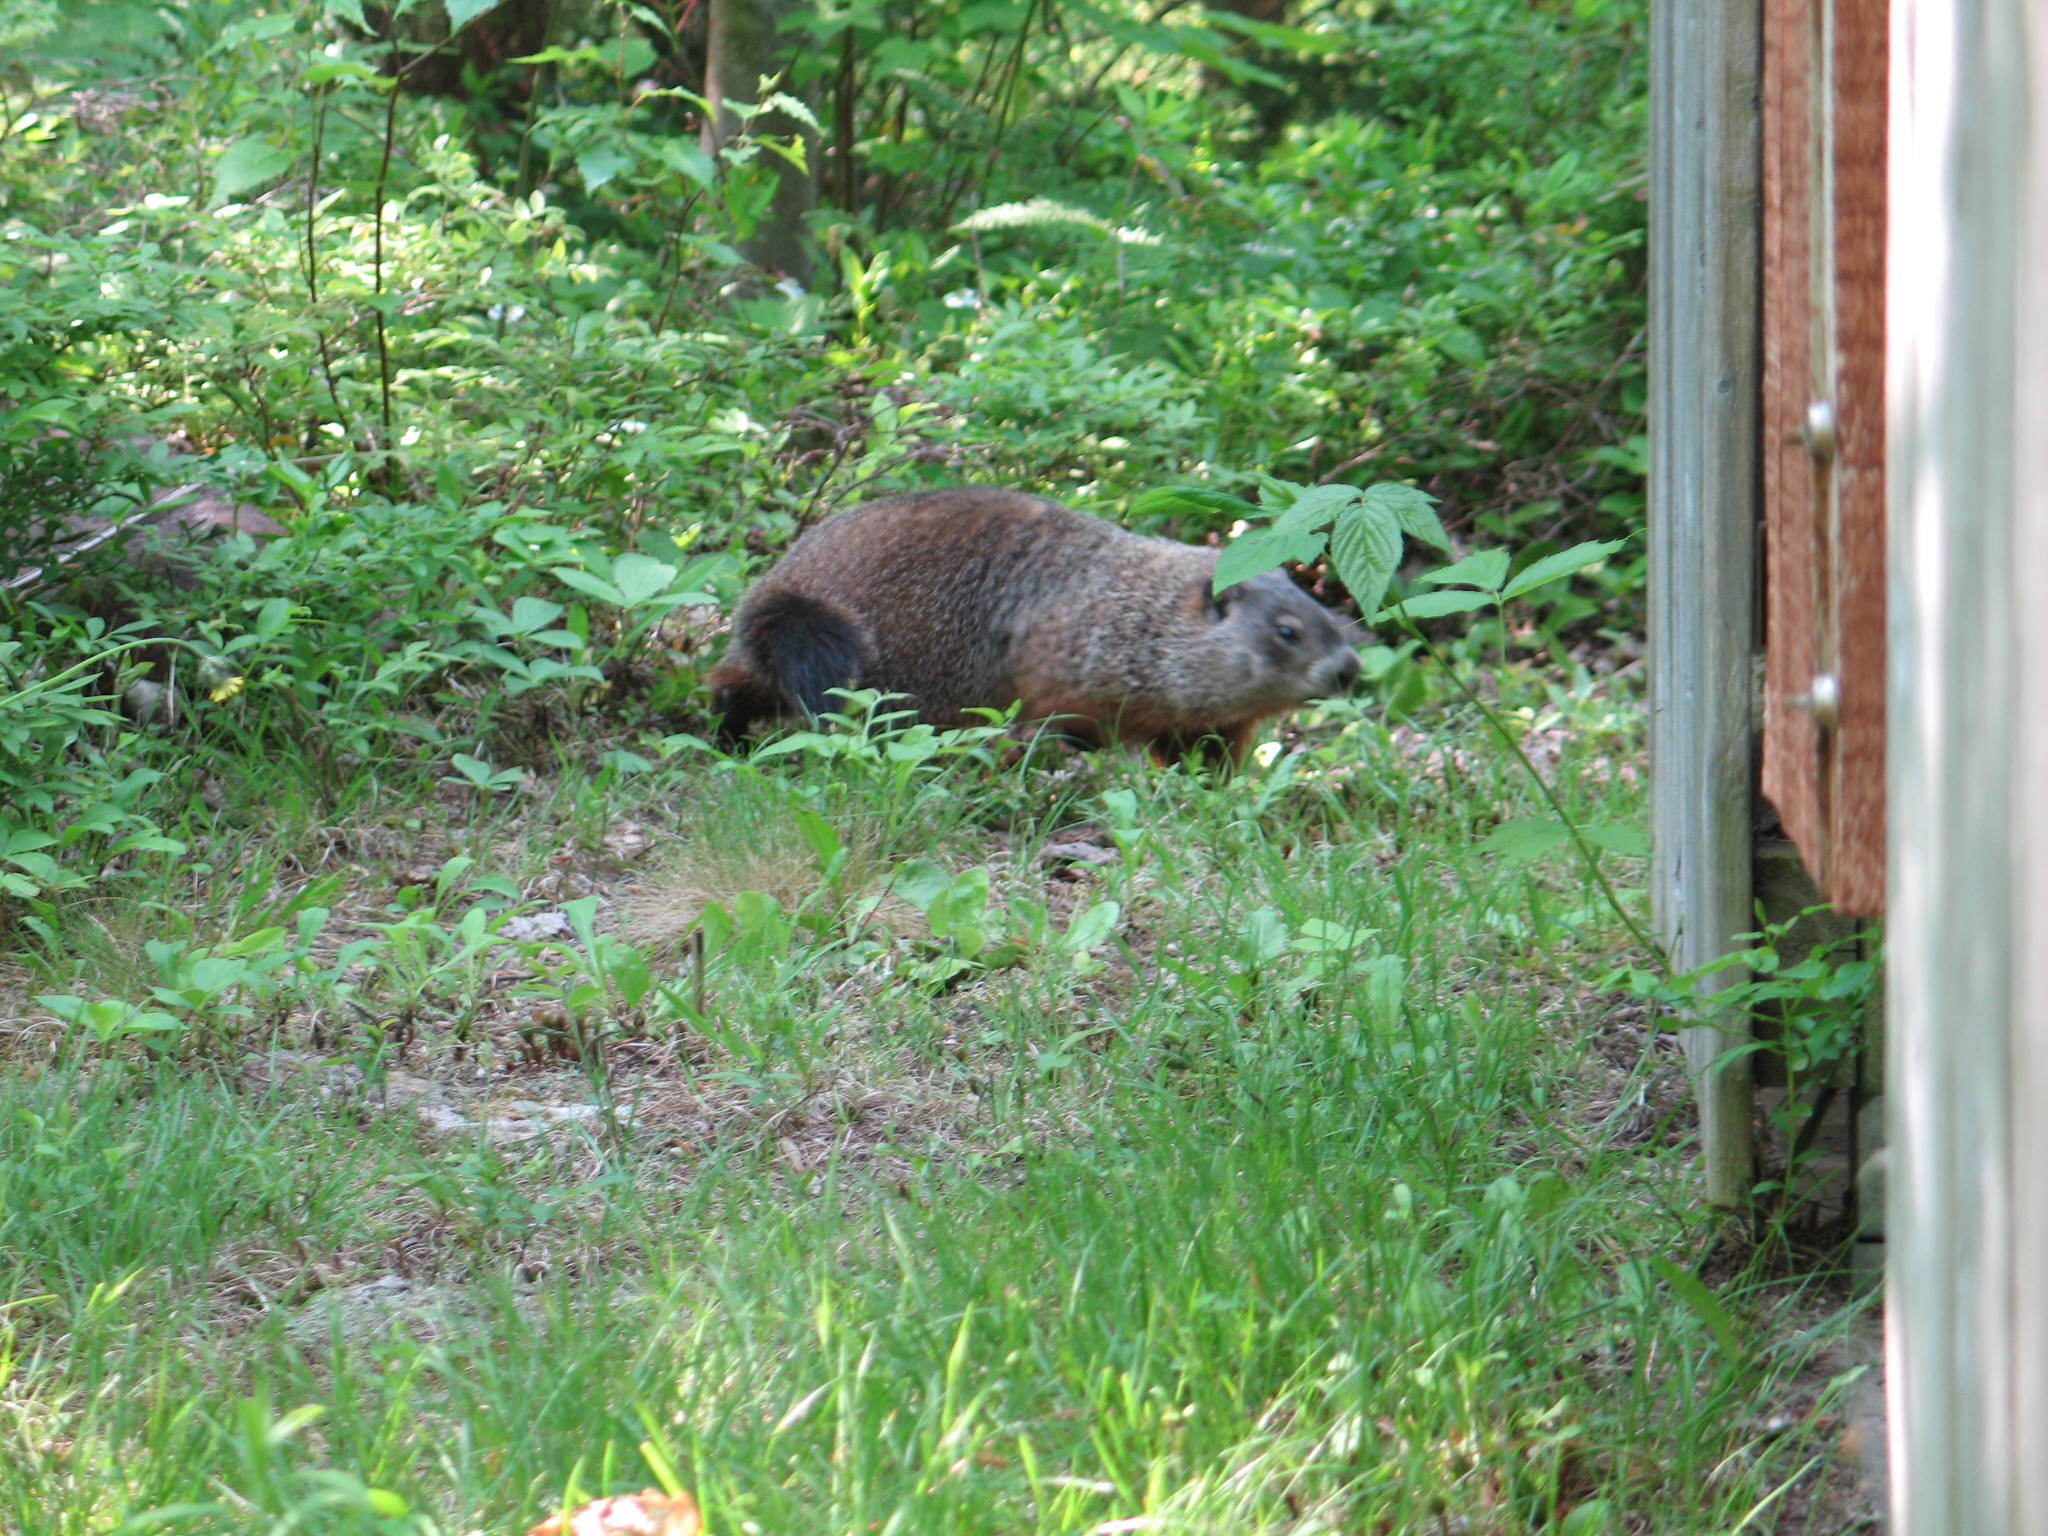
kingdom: Animalia
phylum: Chordata
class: Mammalia
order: Rodentia
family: Sciuridae
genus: Marmota
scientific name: Marmota monax
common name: Groundhog
